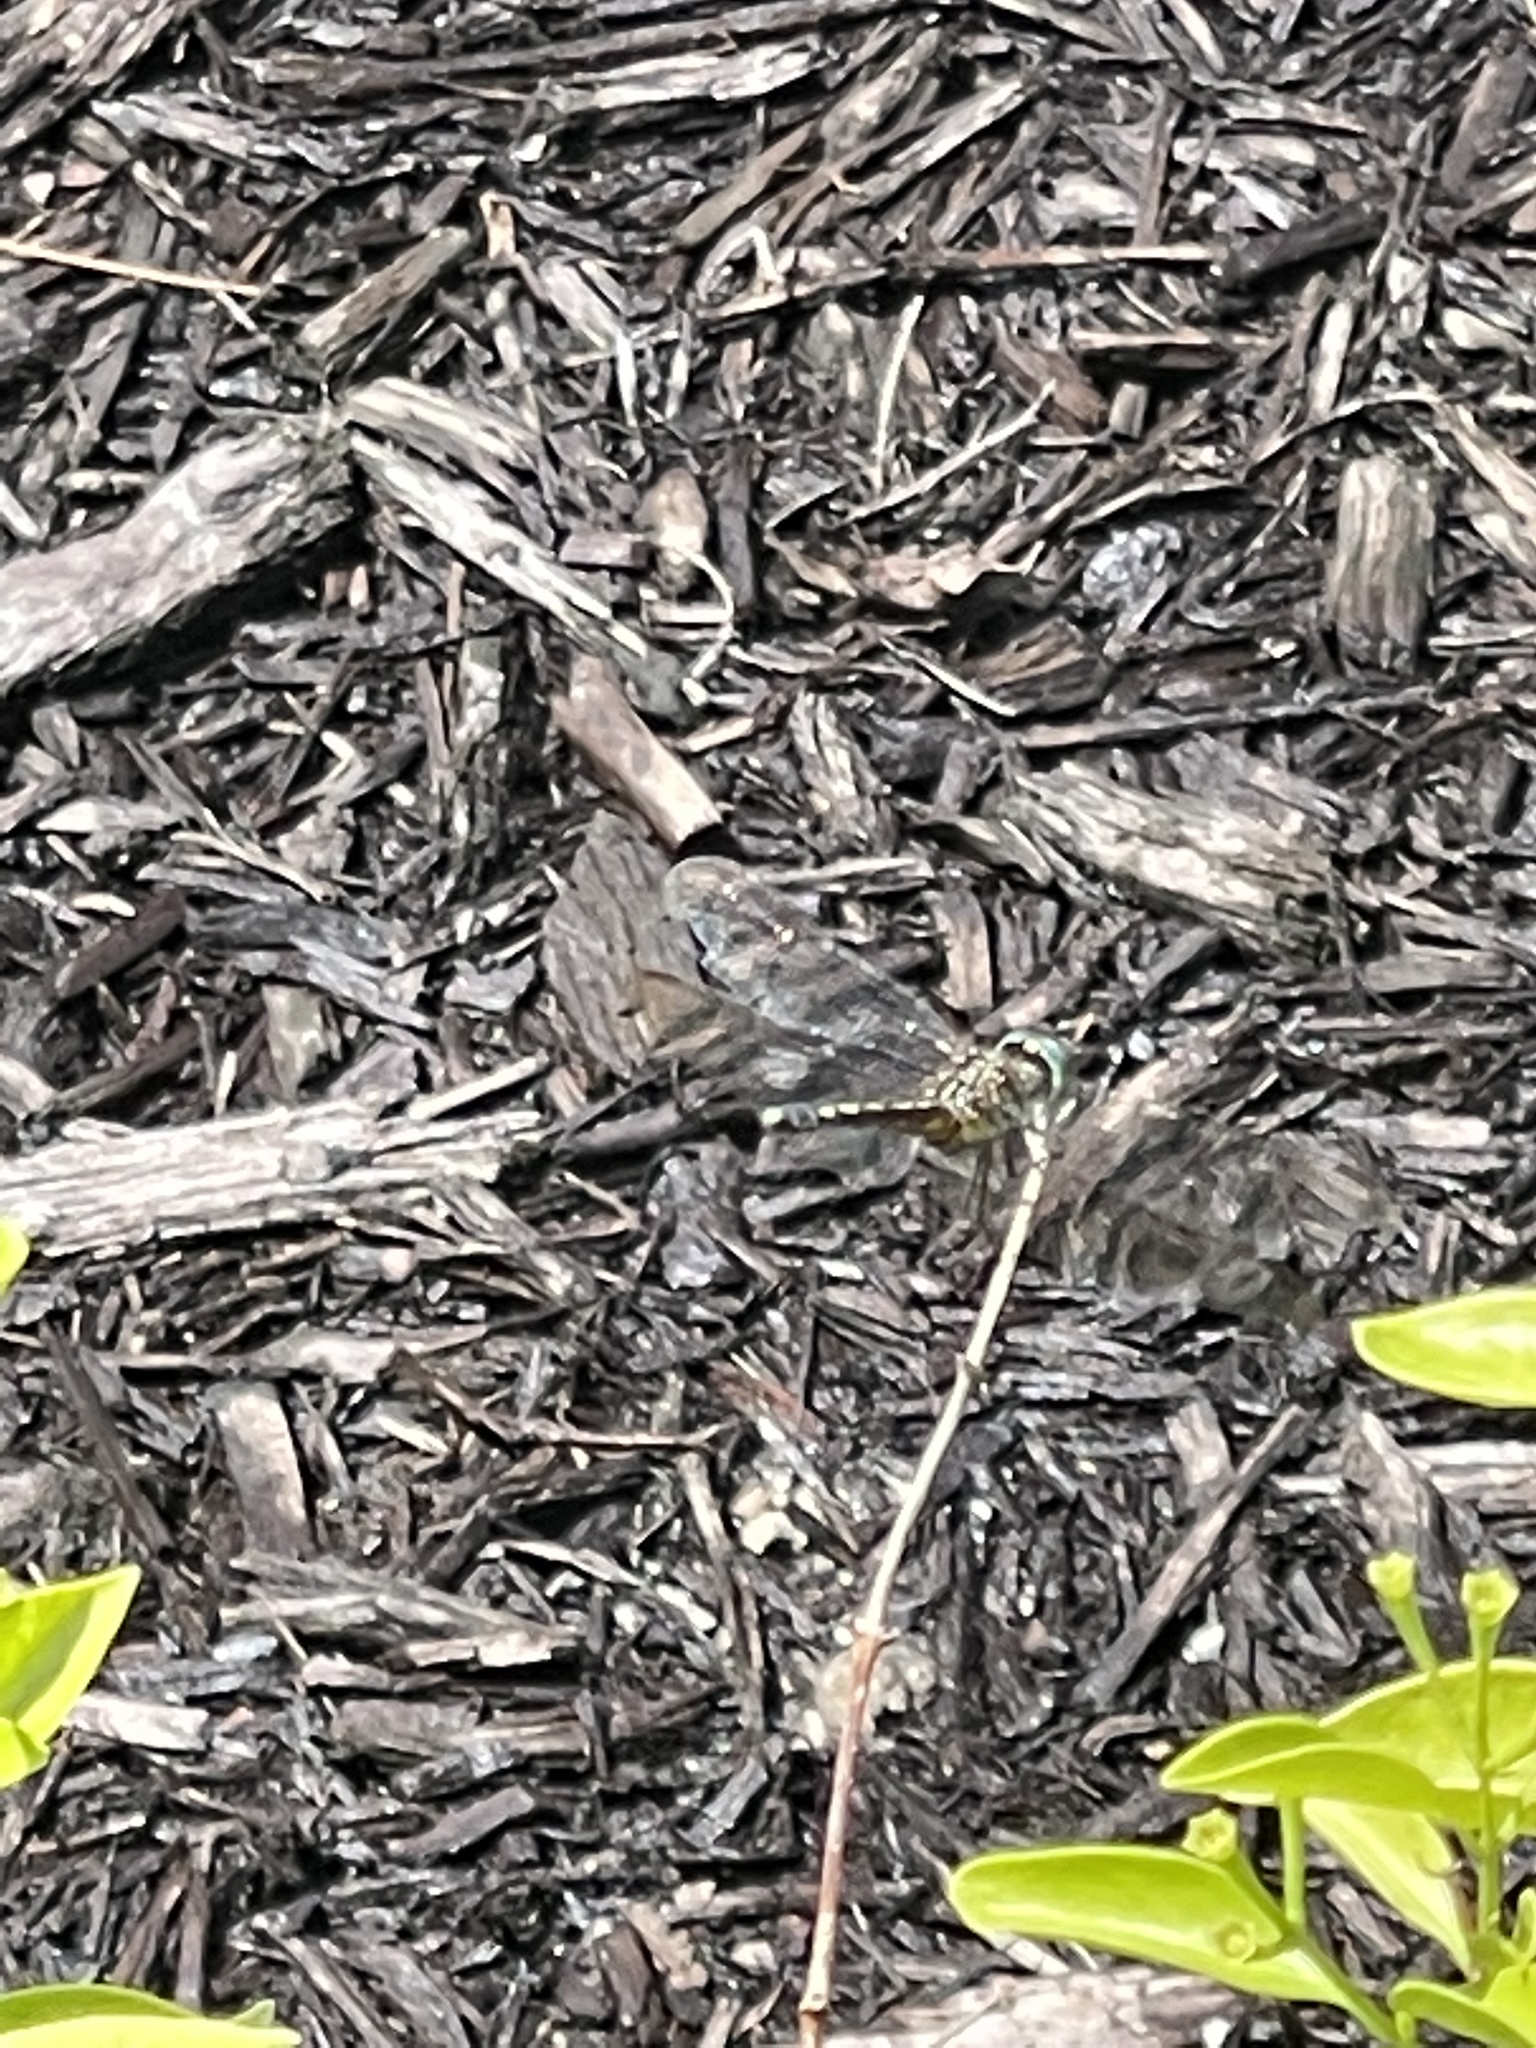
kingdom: Animalia
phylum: Arthropoda
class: Insecta
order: Odonata
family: Libellulidae
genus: Pachydiplax
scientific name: Pachydiplax longipennis
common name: Blue dasher
